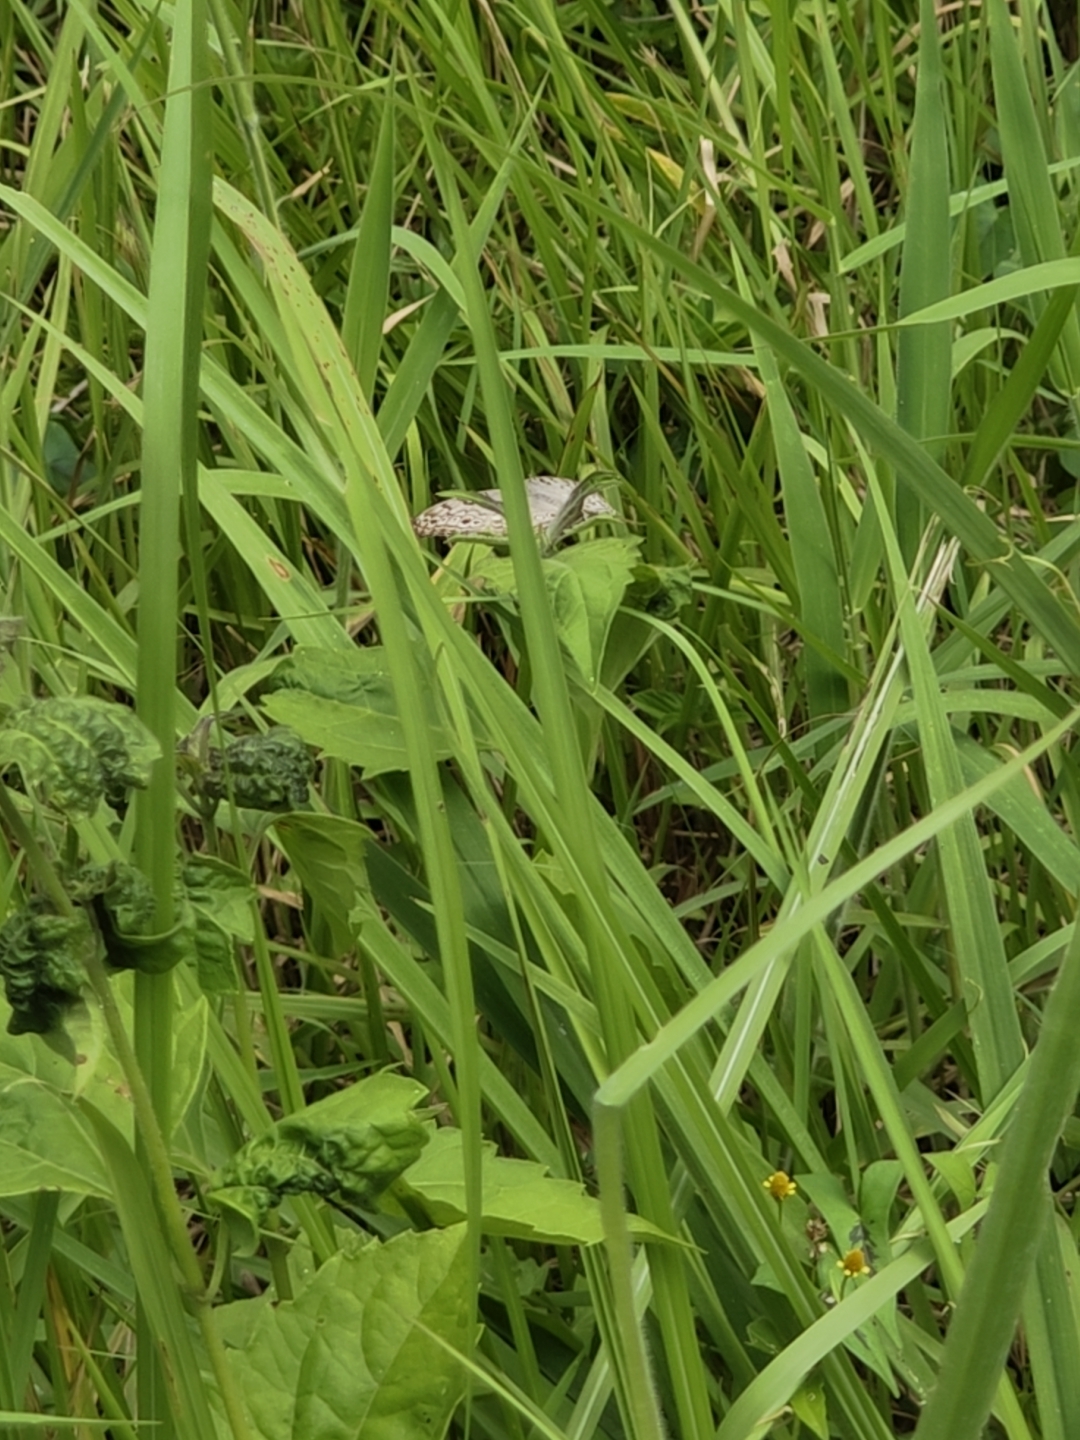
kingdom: Animalia
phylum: Arthropoda
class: Insecta
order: Lepidoptera
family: Nymphalidae
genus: Junonia
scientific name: Junonia atlites
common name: Grey pansy
